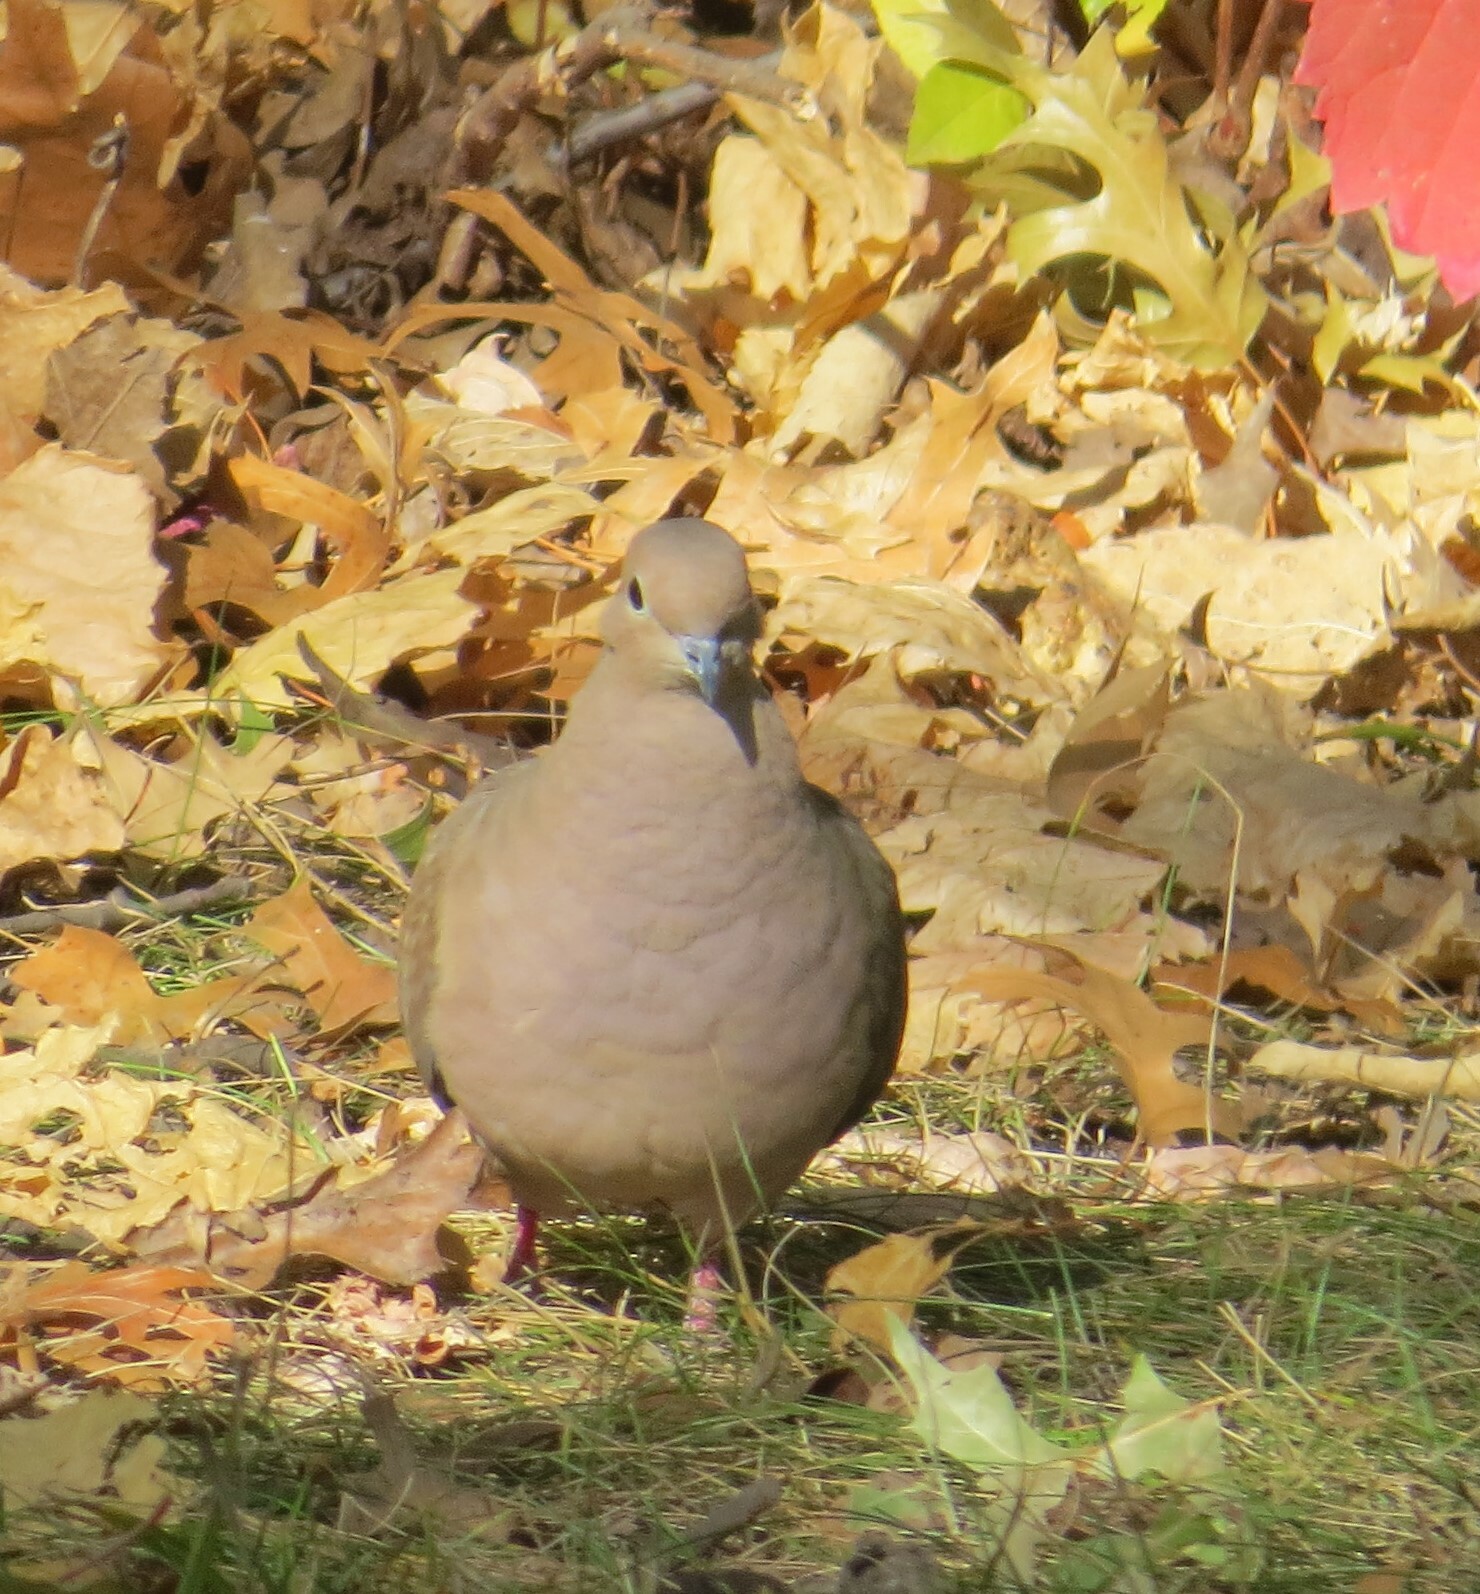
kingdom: Animalia
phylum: Chordata
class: Aves
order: Columbiformes
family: Columbidae
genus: Zenaida
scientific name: Zenaida macroura
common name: Mourning dove
